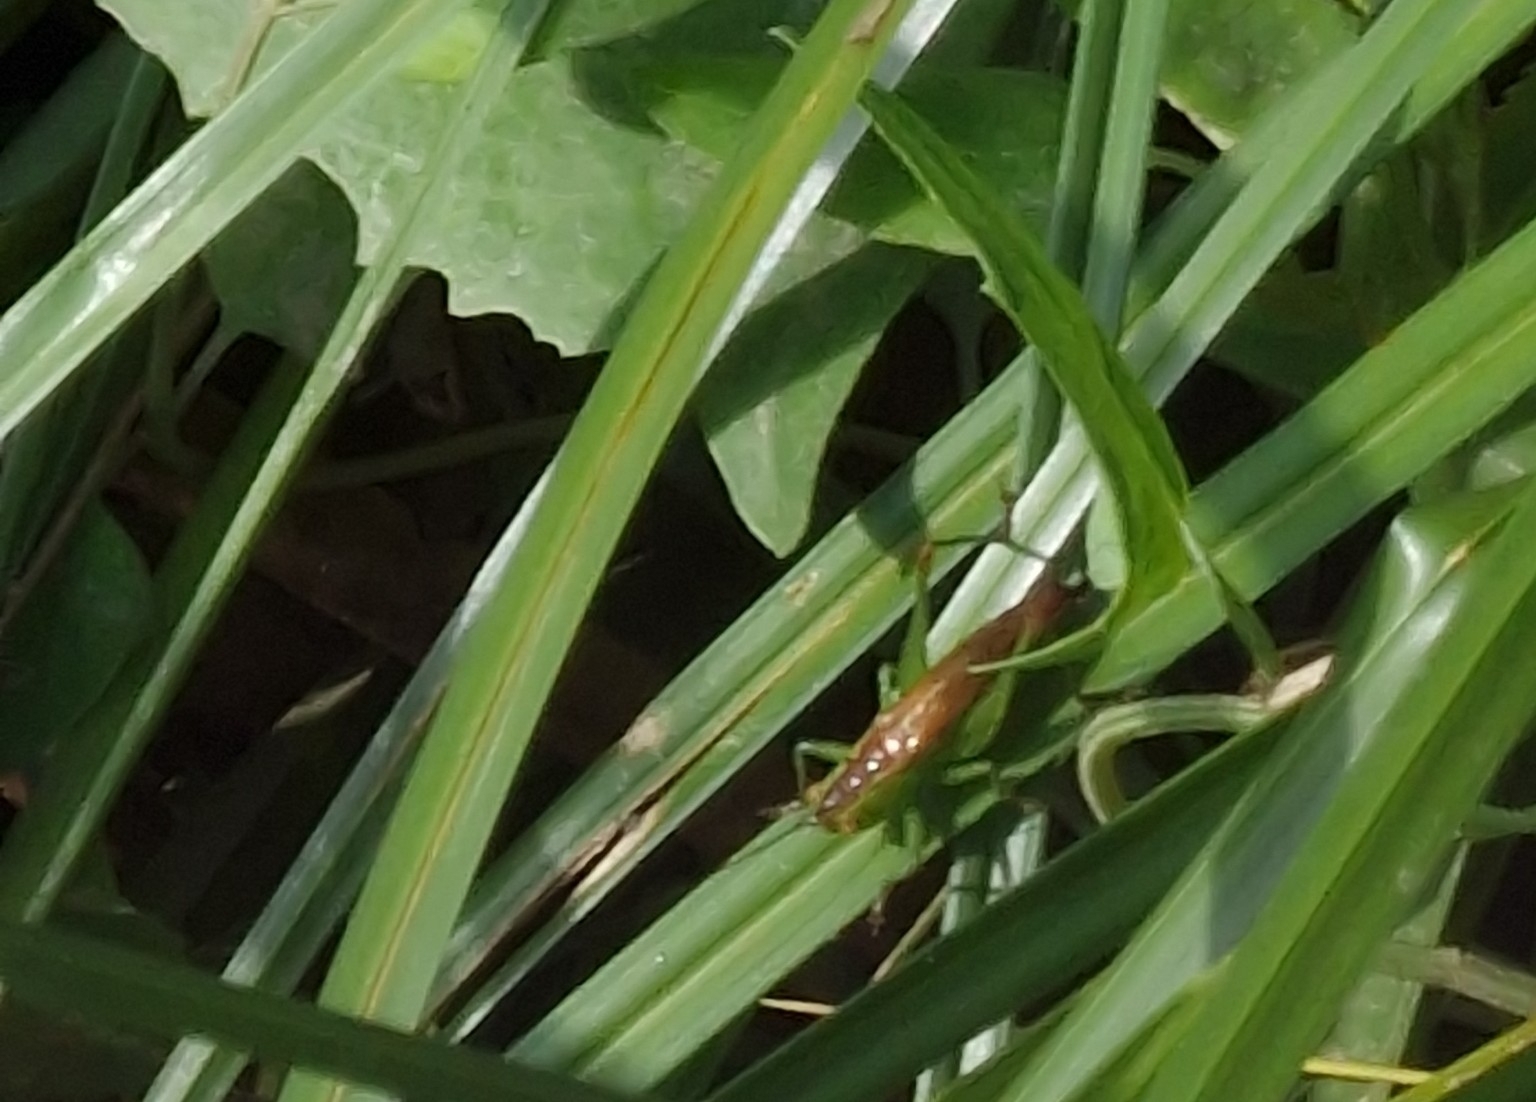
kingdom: Animalia
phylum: Arthropoda
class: Insecta
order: Orthoptera
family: Tettigoniidae
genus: Conocephalus
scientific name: Conocephalus dorsalis
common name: Short-winged conehead
